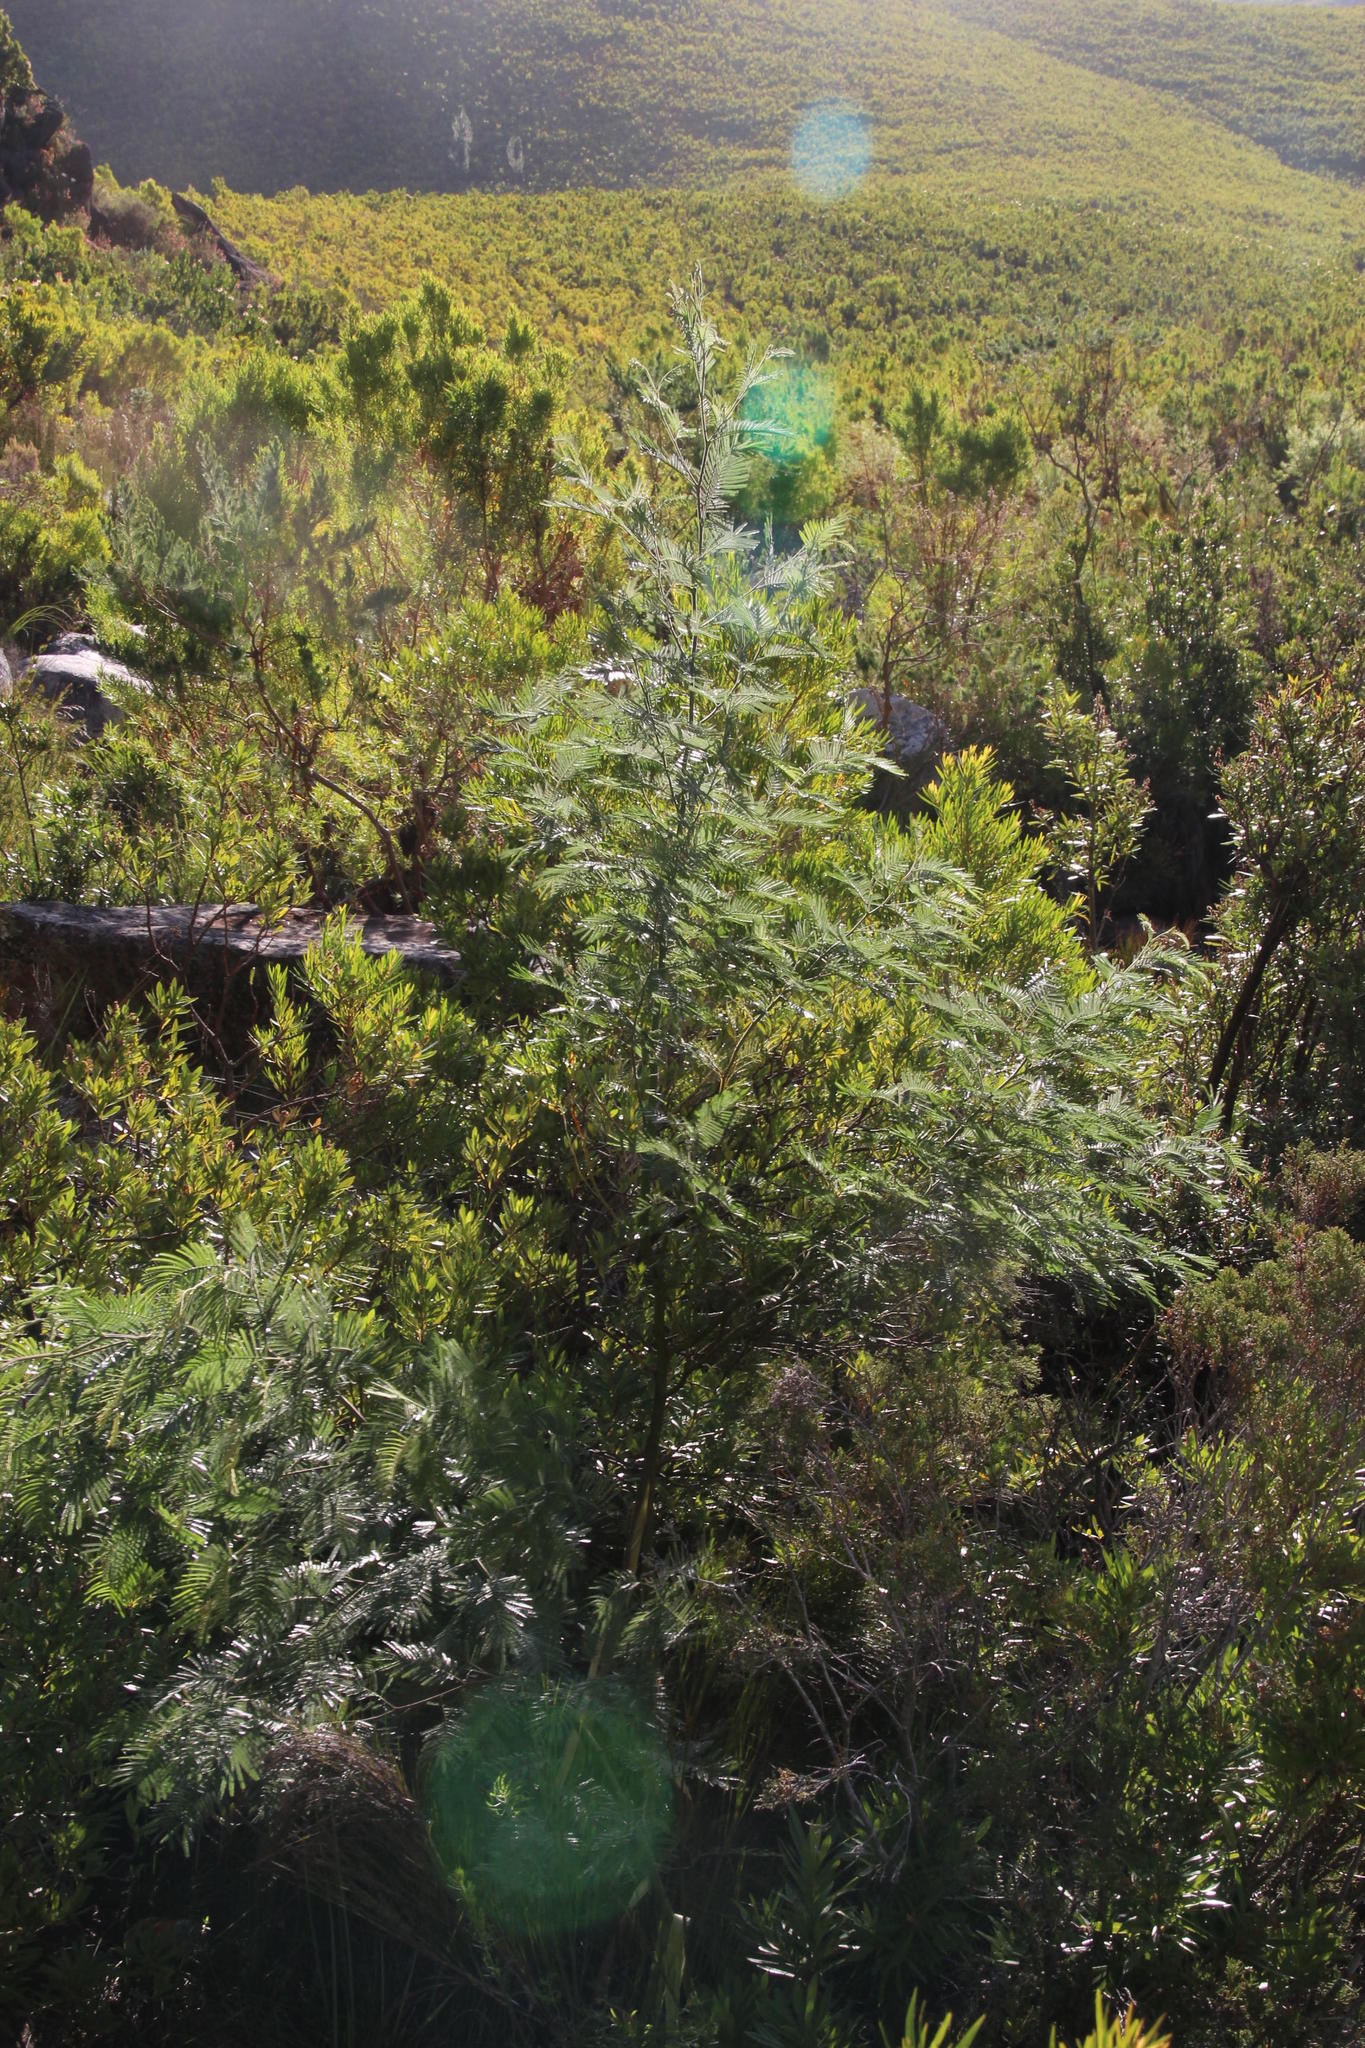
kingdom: Plantae
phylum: Tracheophyta
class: Magnoliopsida
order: Fabales
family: Fabaceae
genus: Acacia
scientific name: Acacia mearnsii
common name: Black wattle
